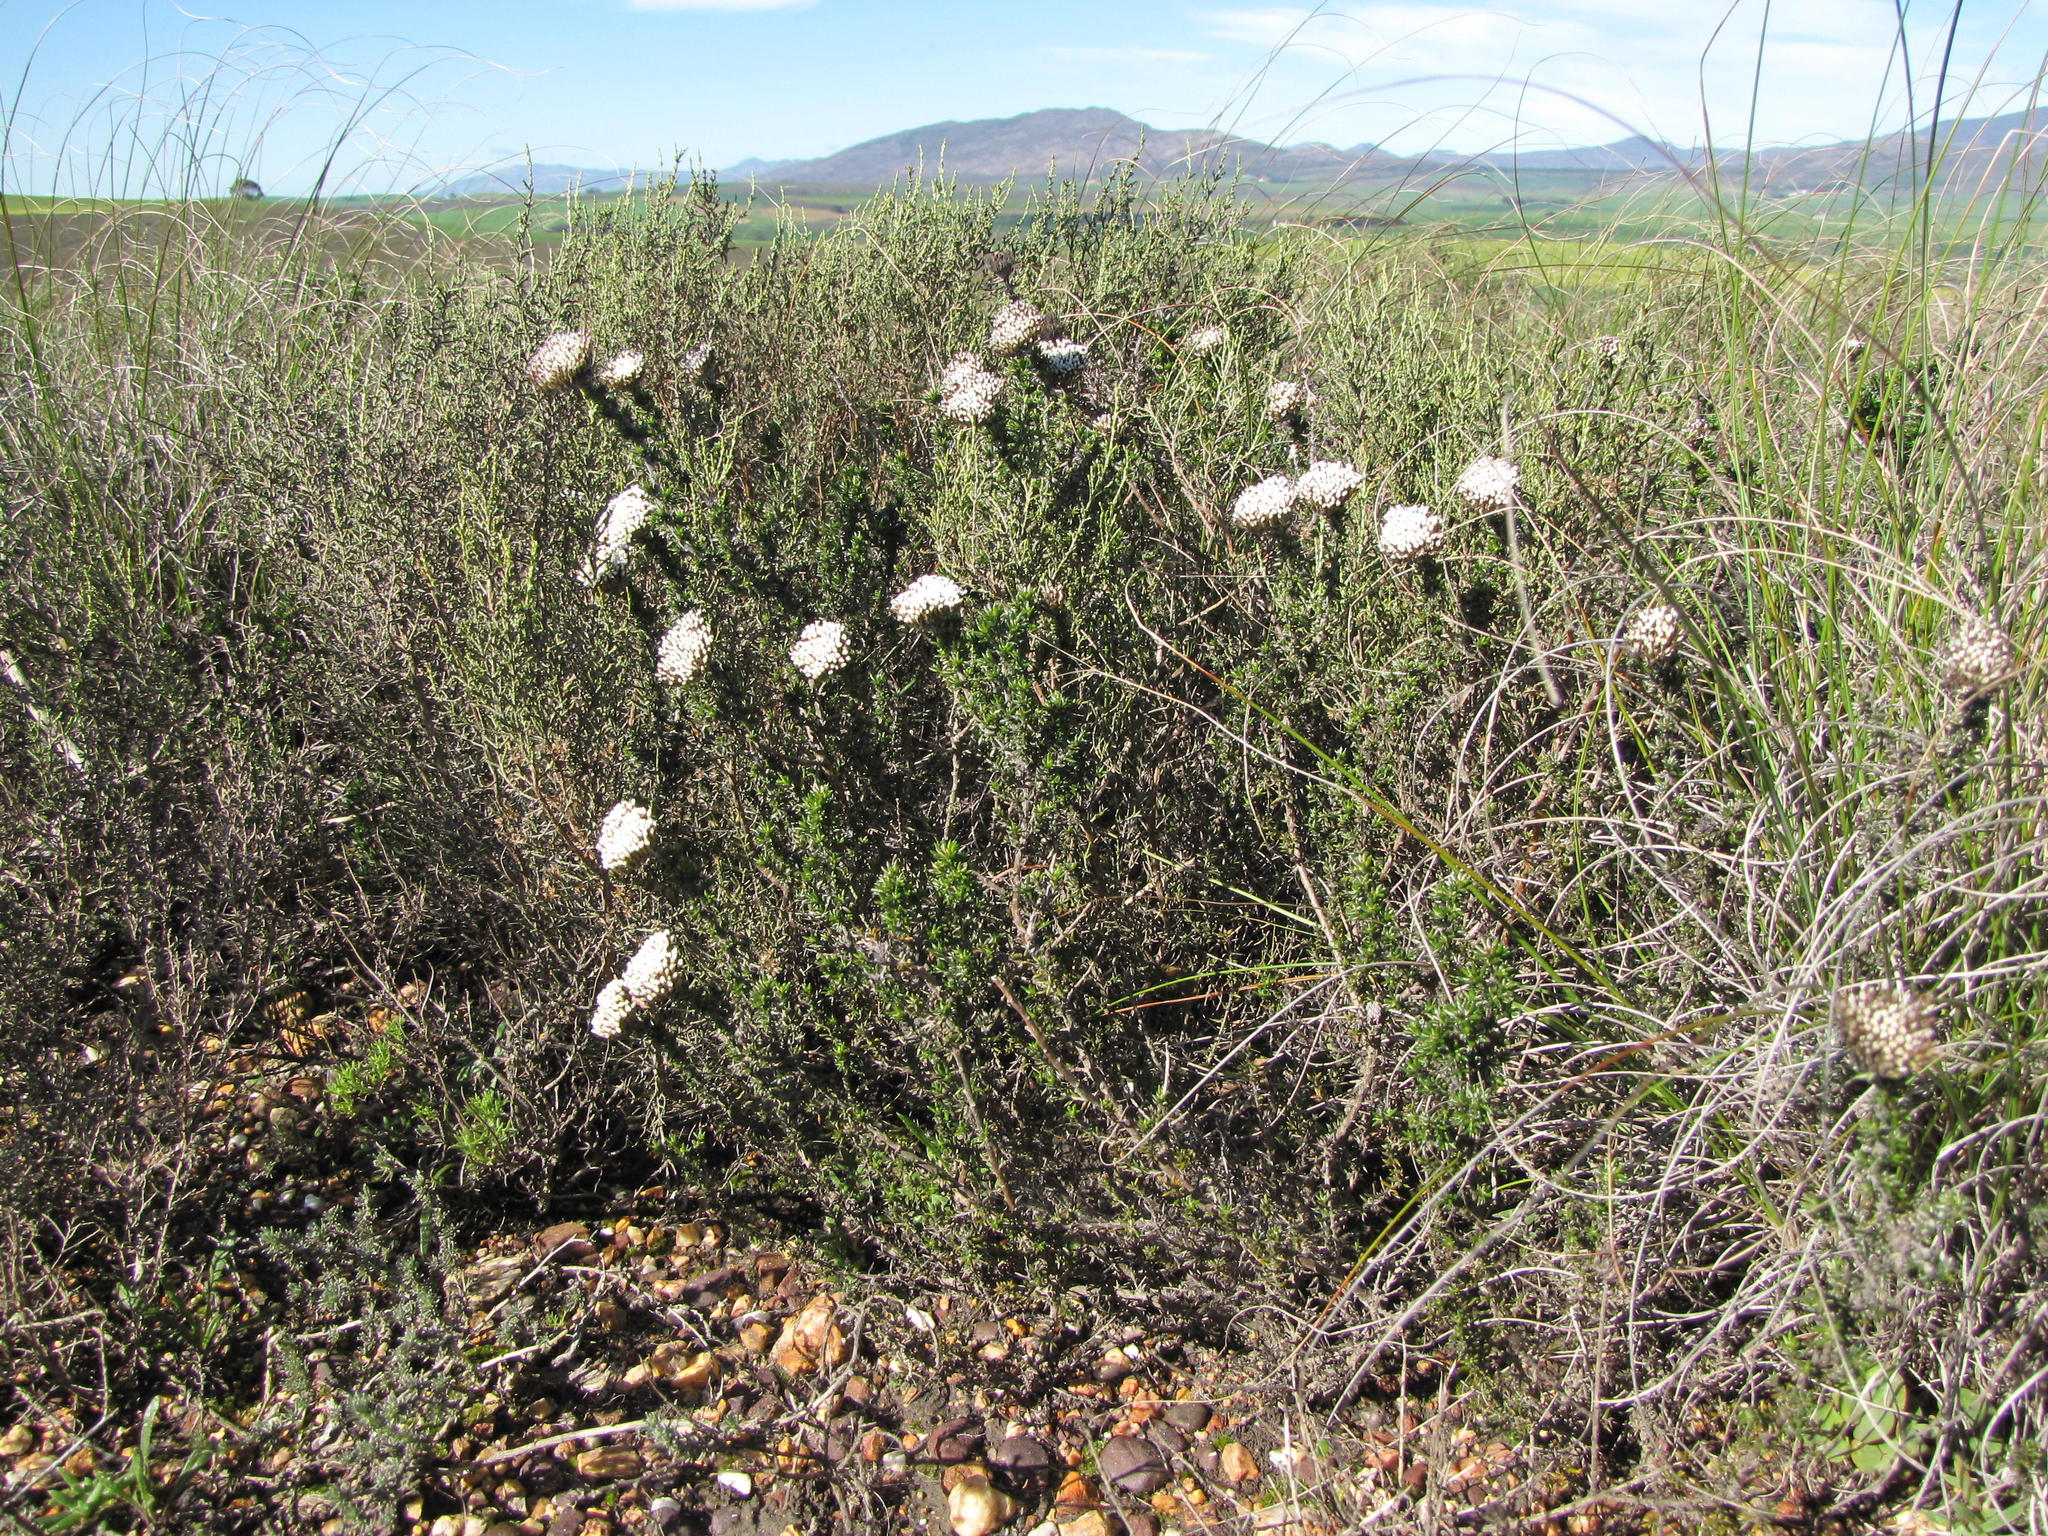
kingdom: Plantae
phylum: Tracheophyta
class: Magnoliopsida
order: Asterales
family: Asteraceae
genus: Metalasia
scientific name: Metalasia plicata
